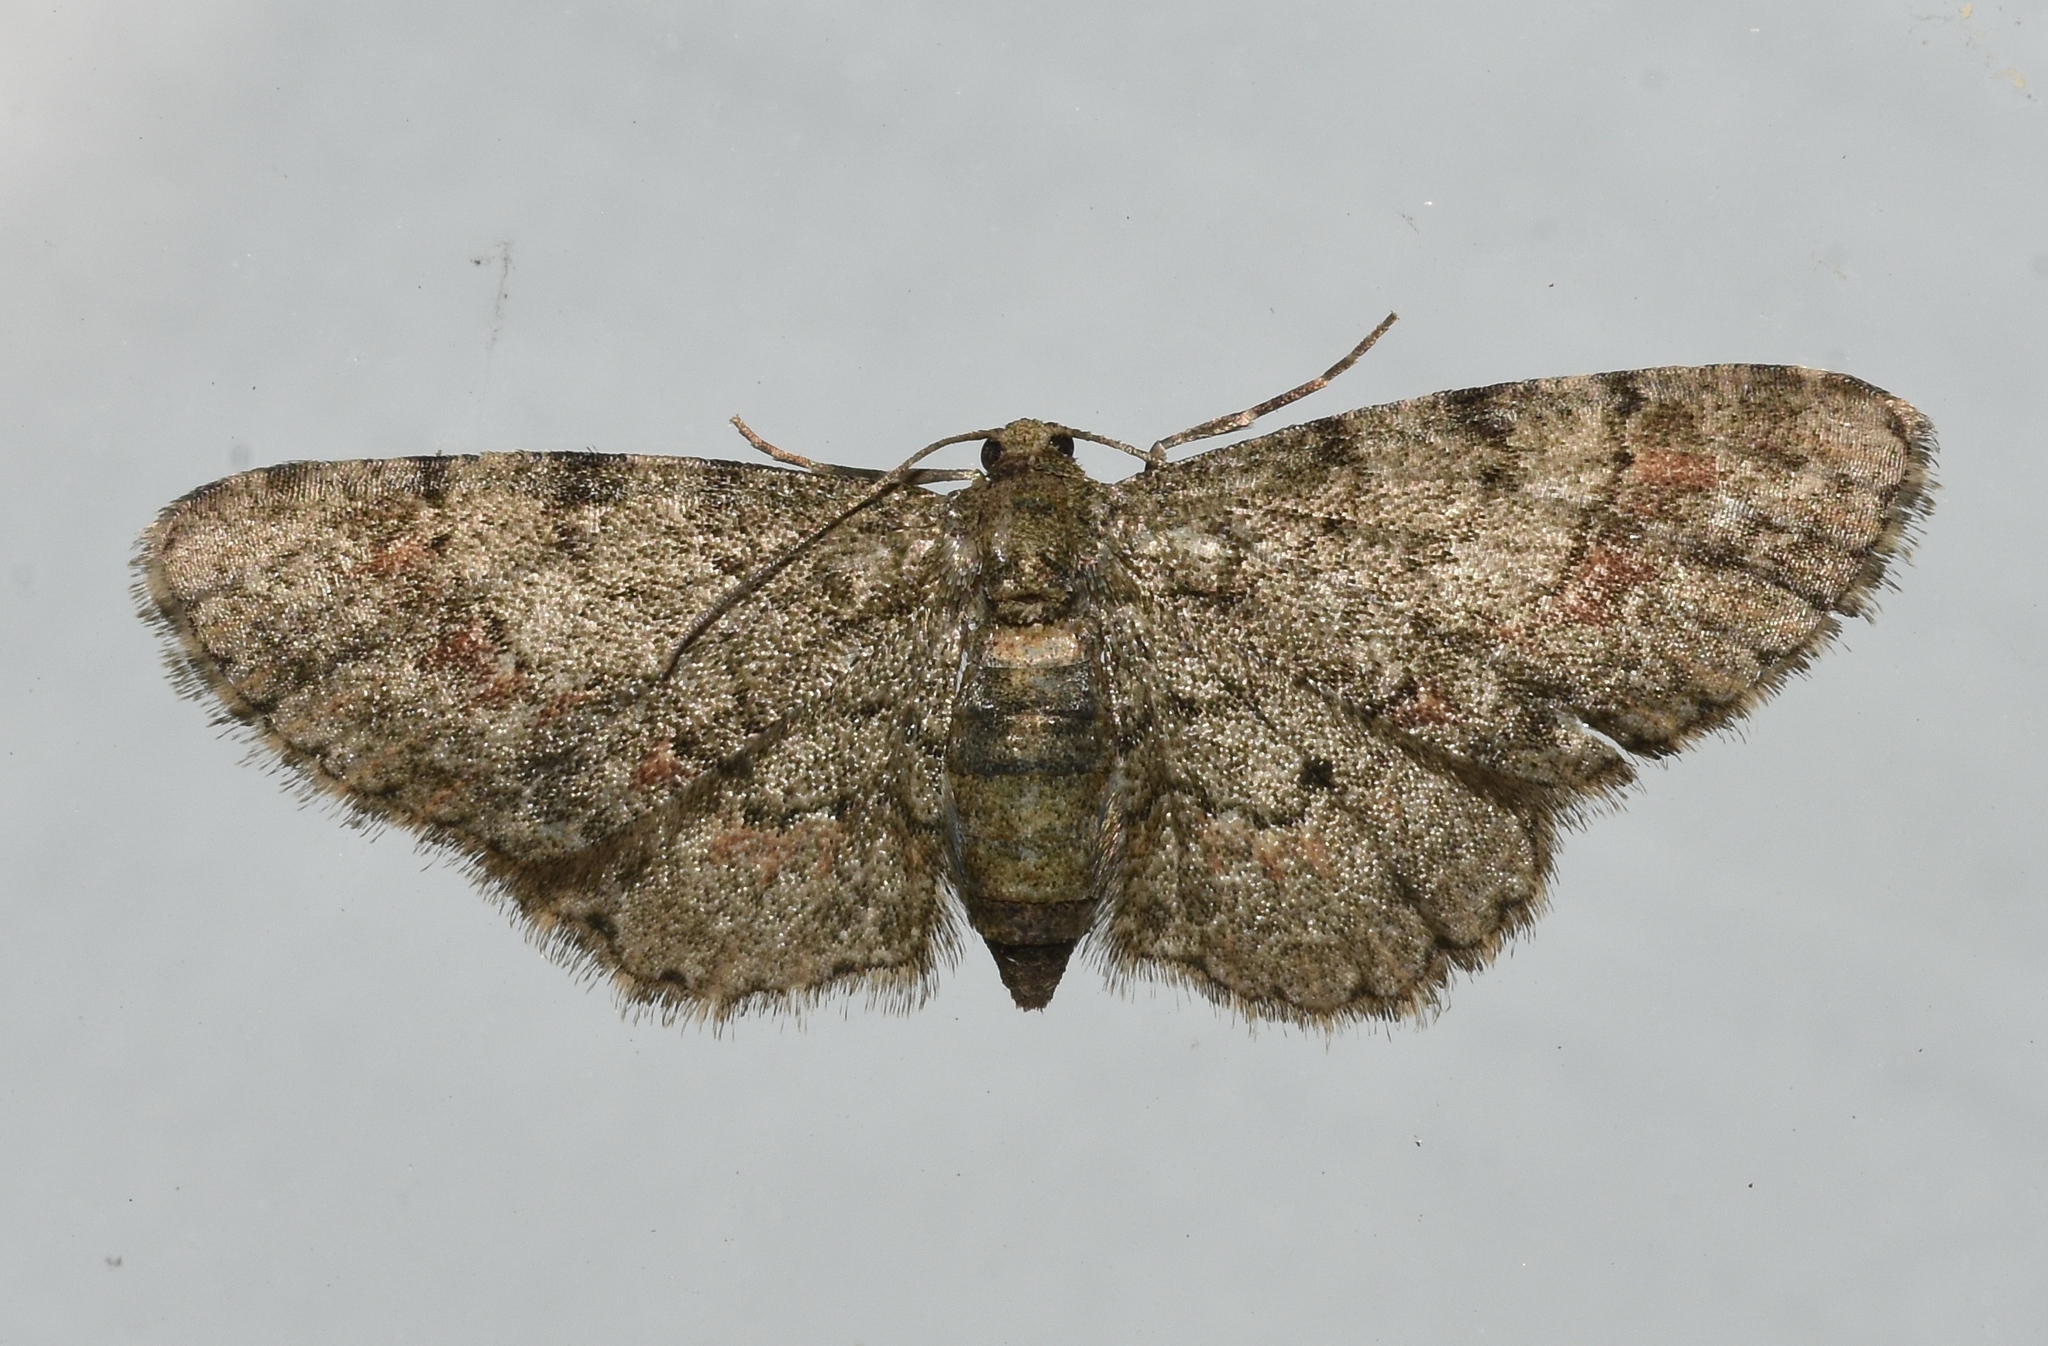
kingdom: Animalia
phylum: Arthropoda
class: Insecta
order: Lepidoptera
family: Geometridae
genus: Glenoides
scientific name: Glenoides texanaria
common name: Texas gray
